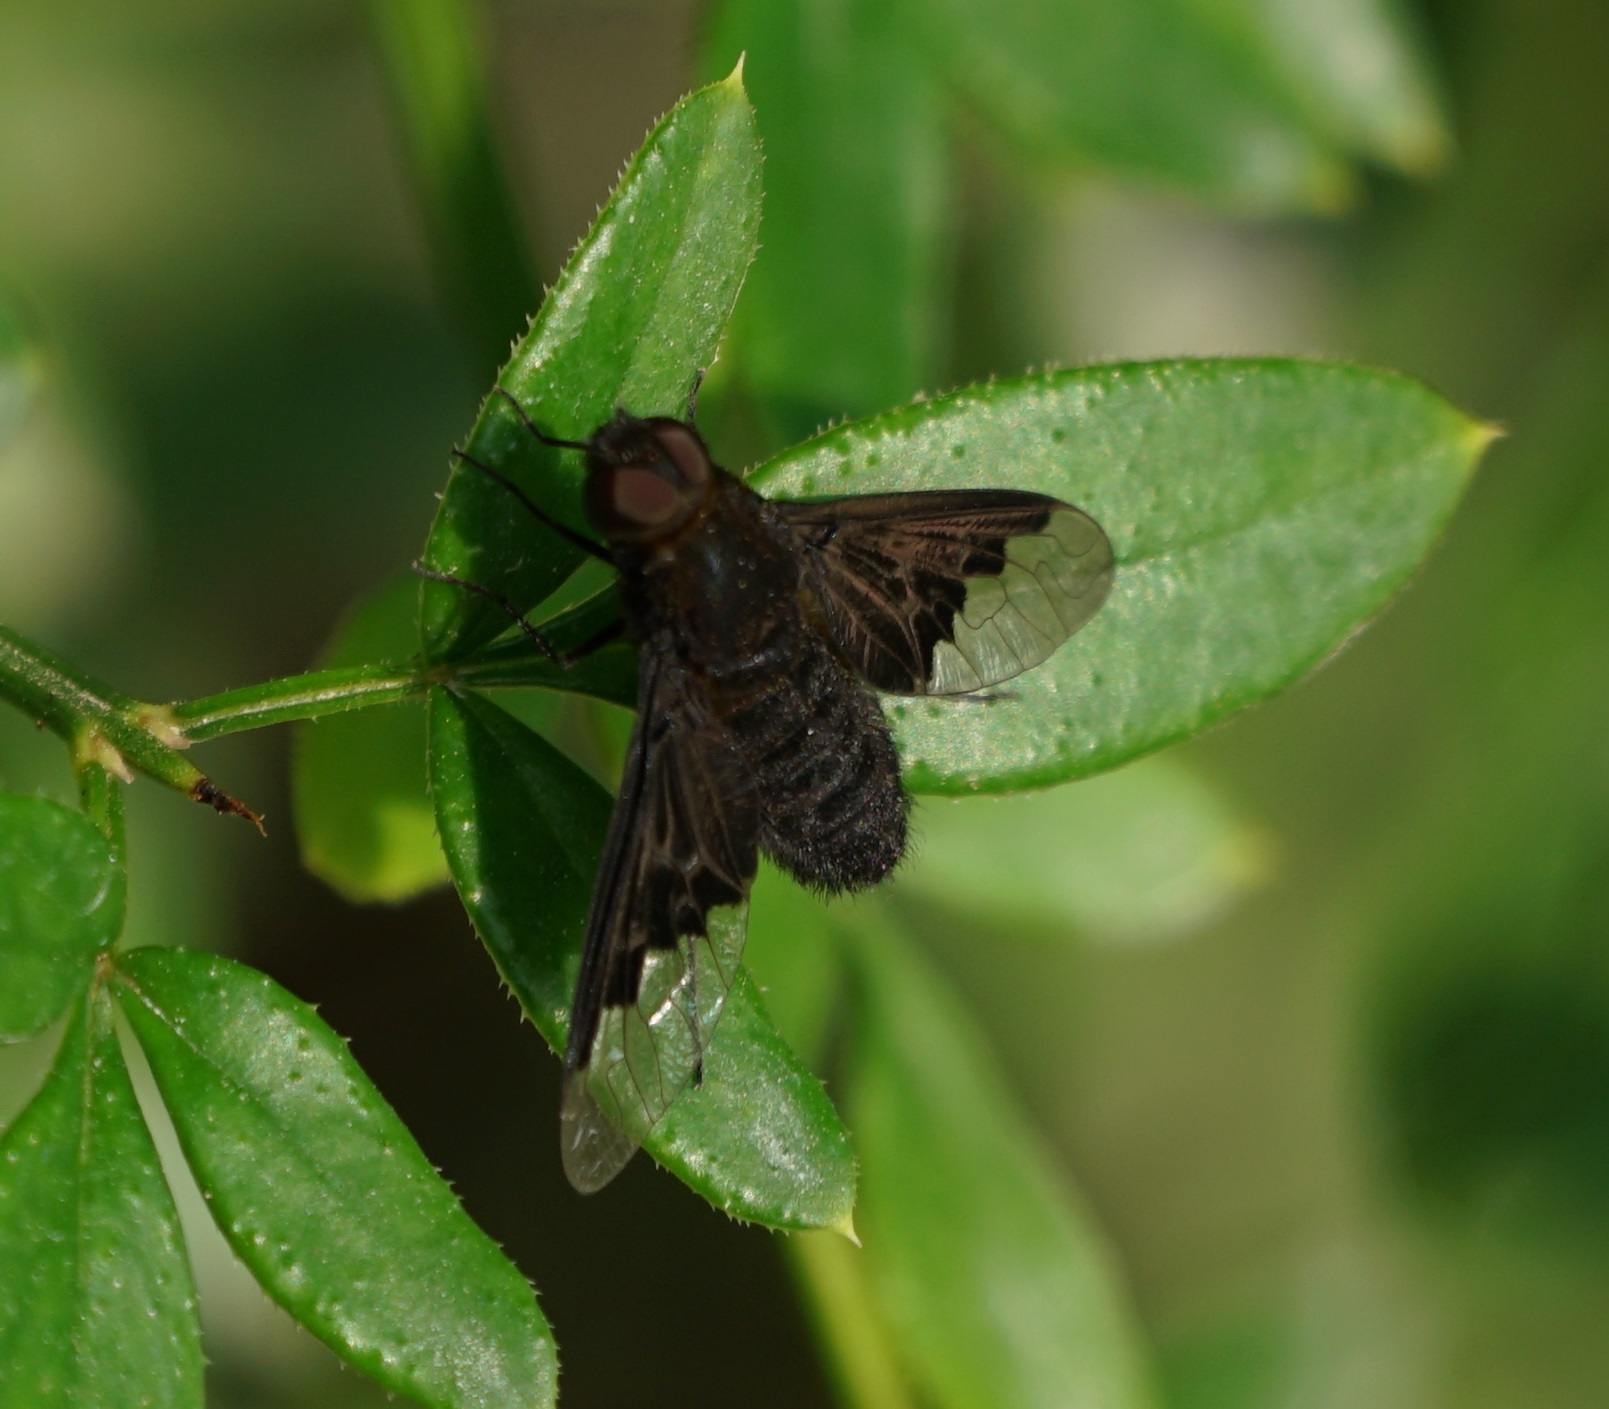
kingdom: Animalia
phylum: Arthropoda
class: Insecta
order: Diptera
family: Bombyliidae
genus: Hemipenthes
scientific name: Hemipenthes morio
